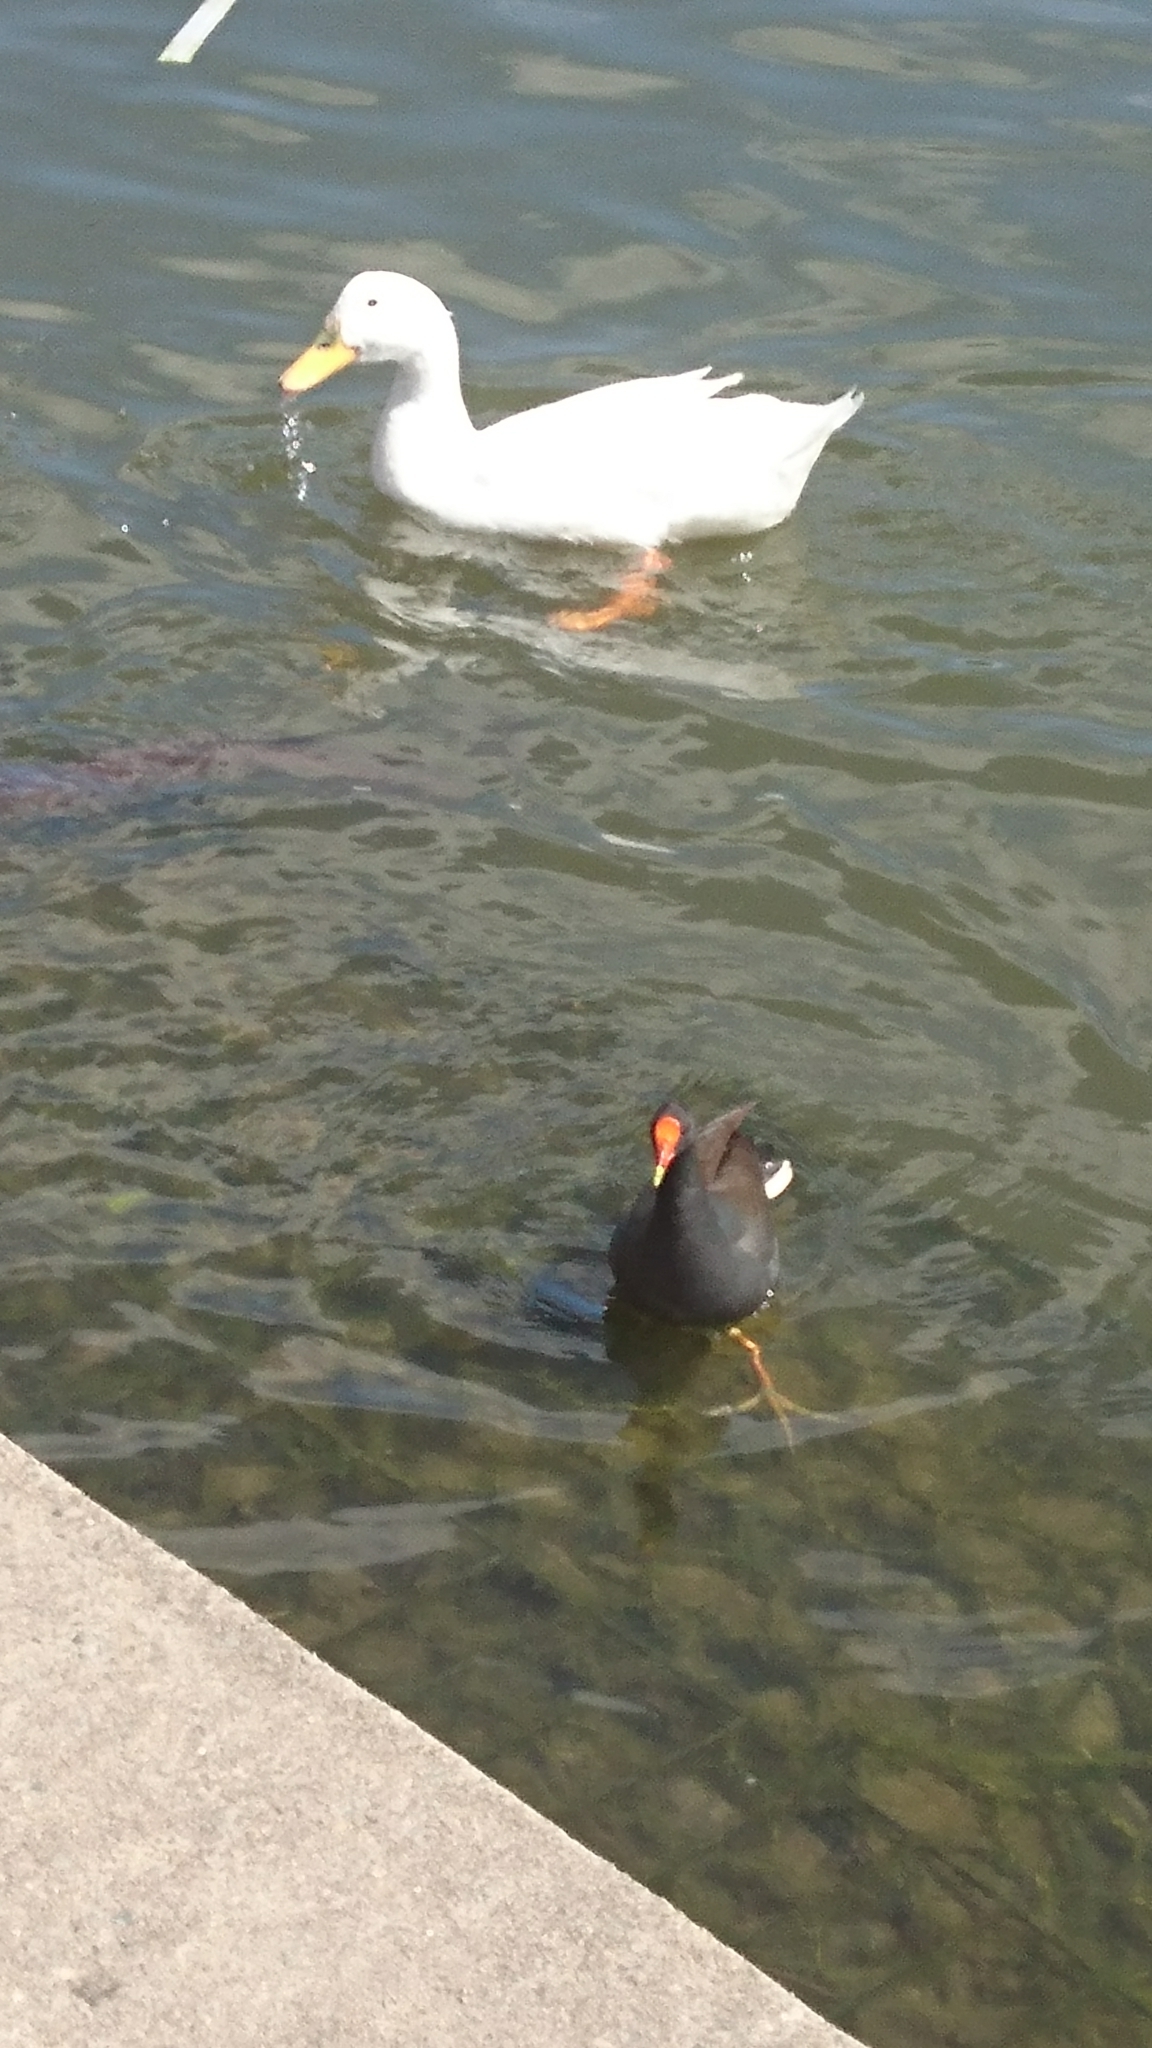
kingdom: Animalia
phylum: Chordata
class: Aves
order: Gruiformes
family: Rallidae
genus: Gallinula
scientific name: Gallinula tenebrosa
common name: Dusky moorhen
